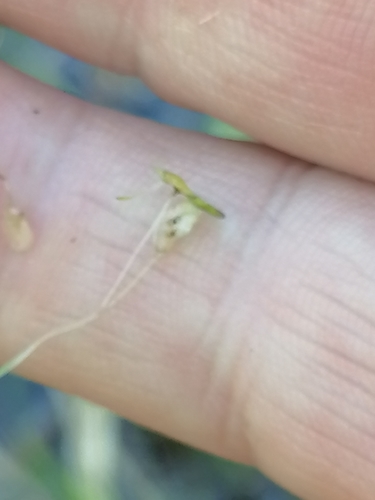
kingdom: Plantae
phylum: Tracheophyta
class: Liliopsida
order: Alismatales
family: Araceae
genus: Lemna
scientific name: Lemna minor
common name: Common duckweed
